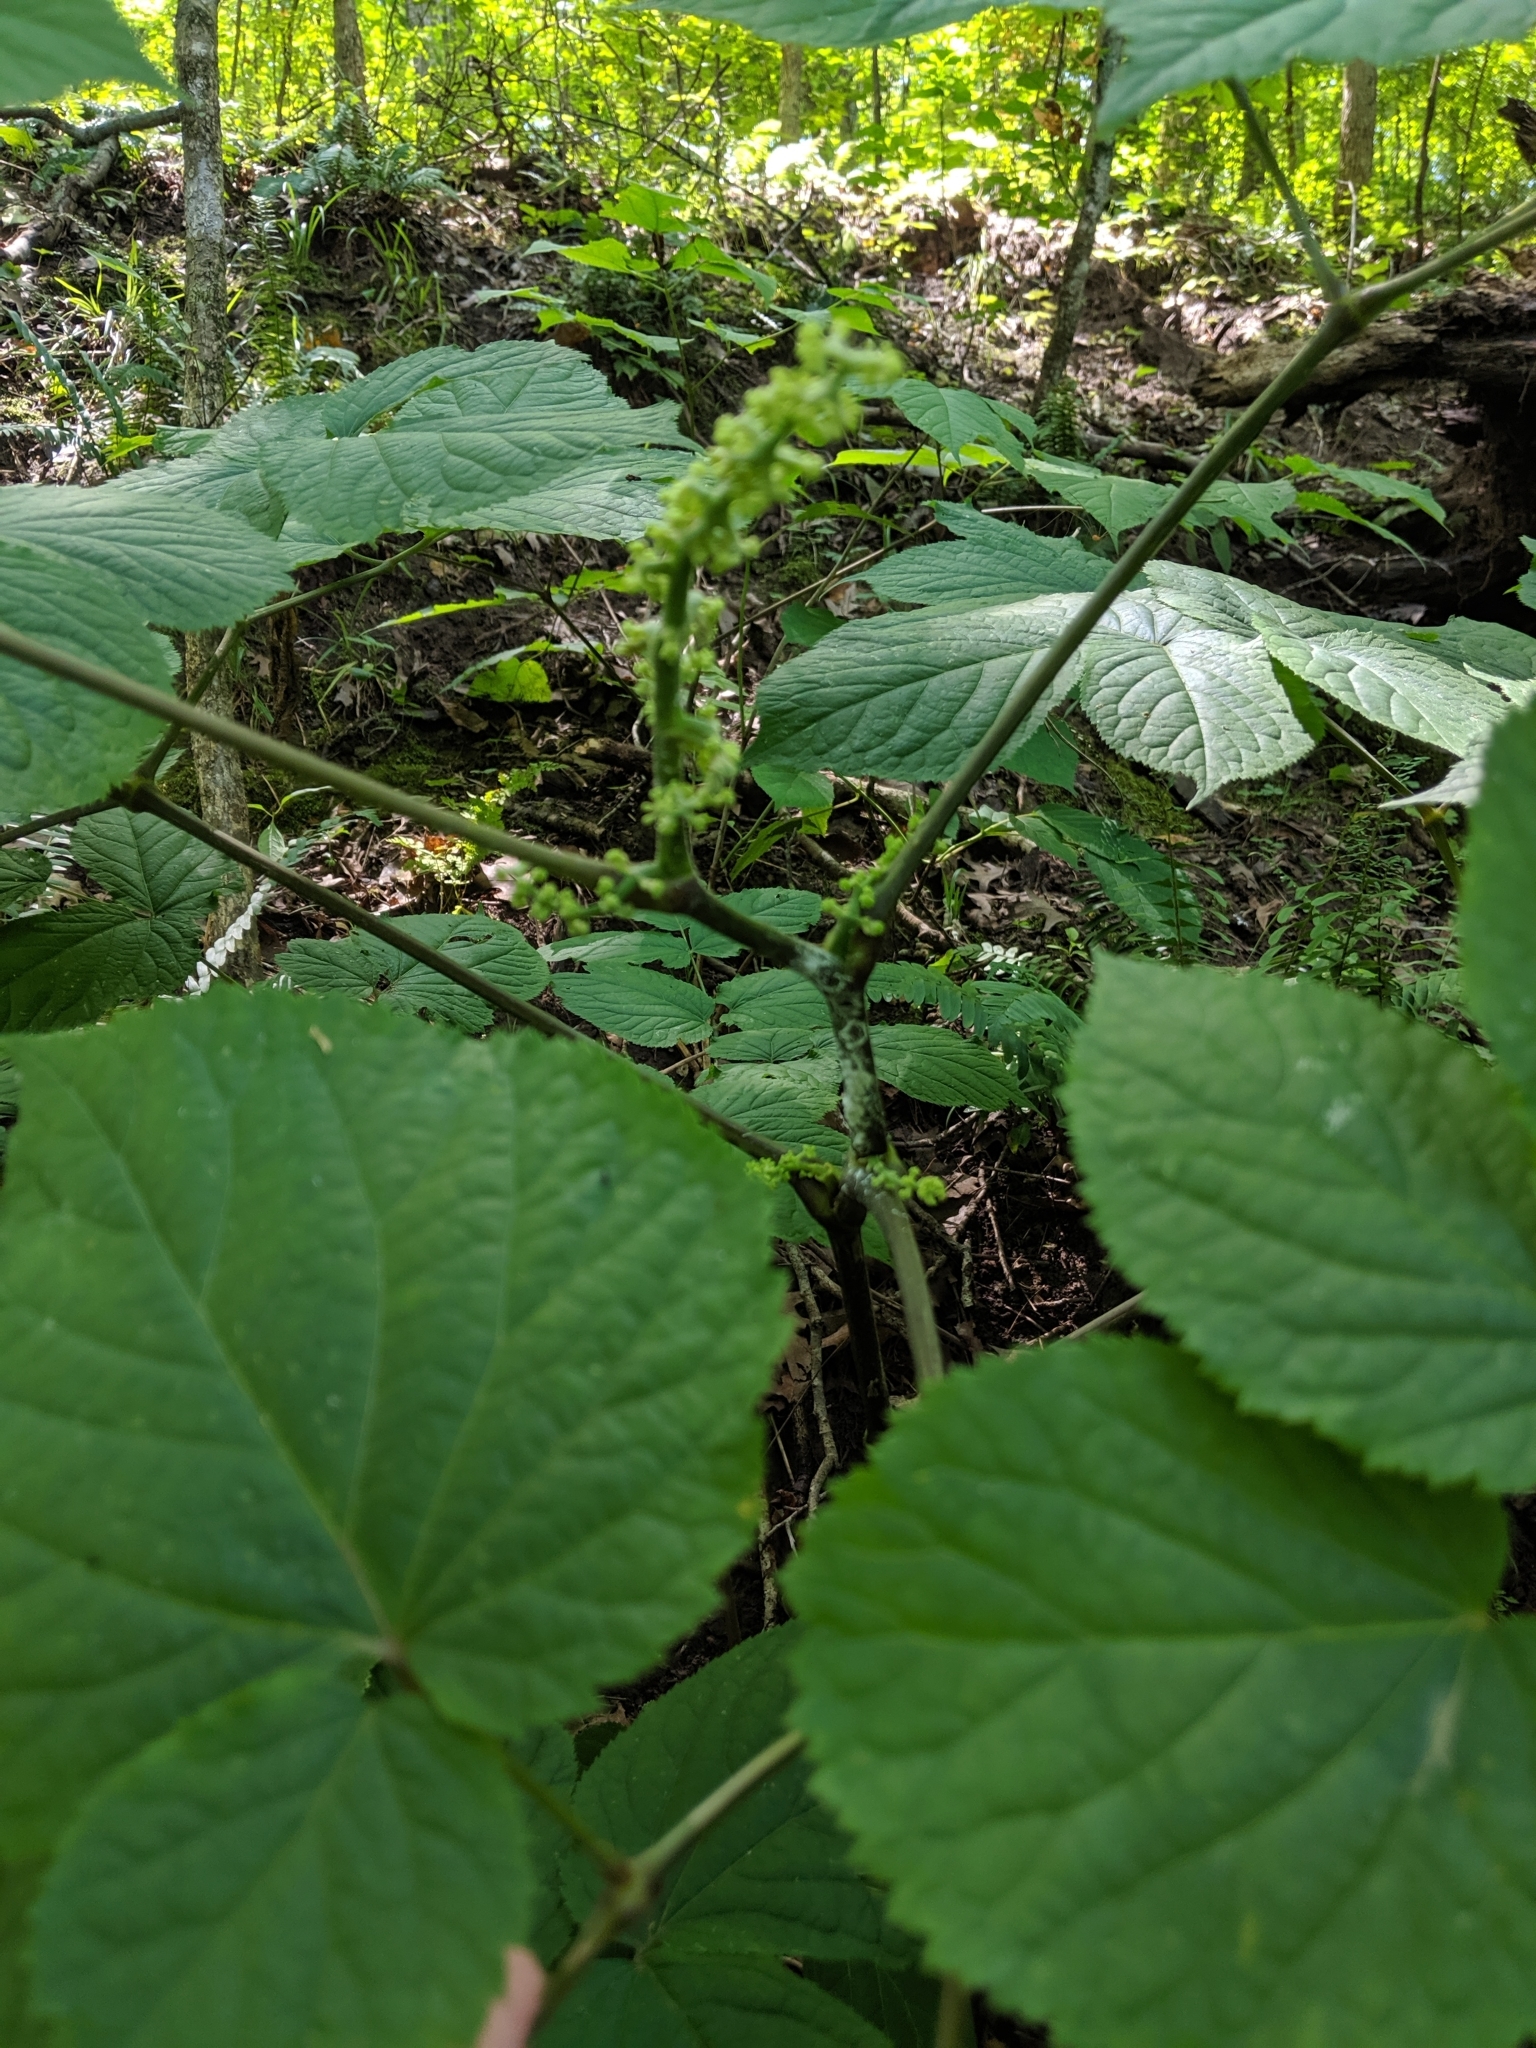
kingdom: Plantae
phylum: Tracheophyta
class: Magnoliopsida
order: Apiales
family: Araliaceae
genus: Aralia
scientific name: Aralia racemosa
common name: American-spikenard
